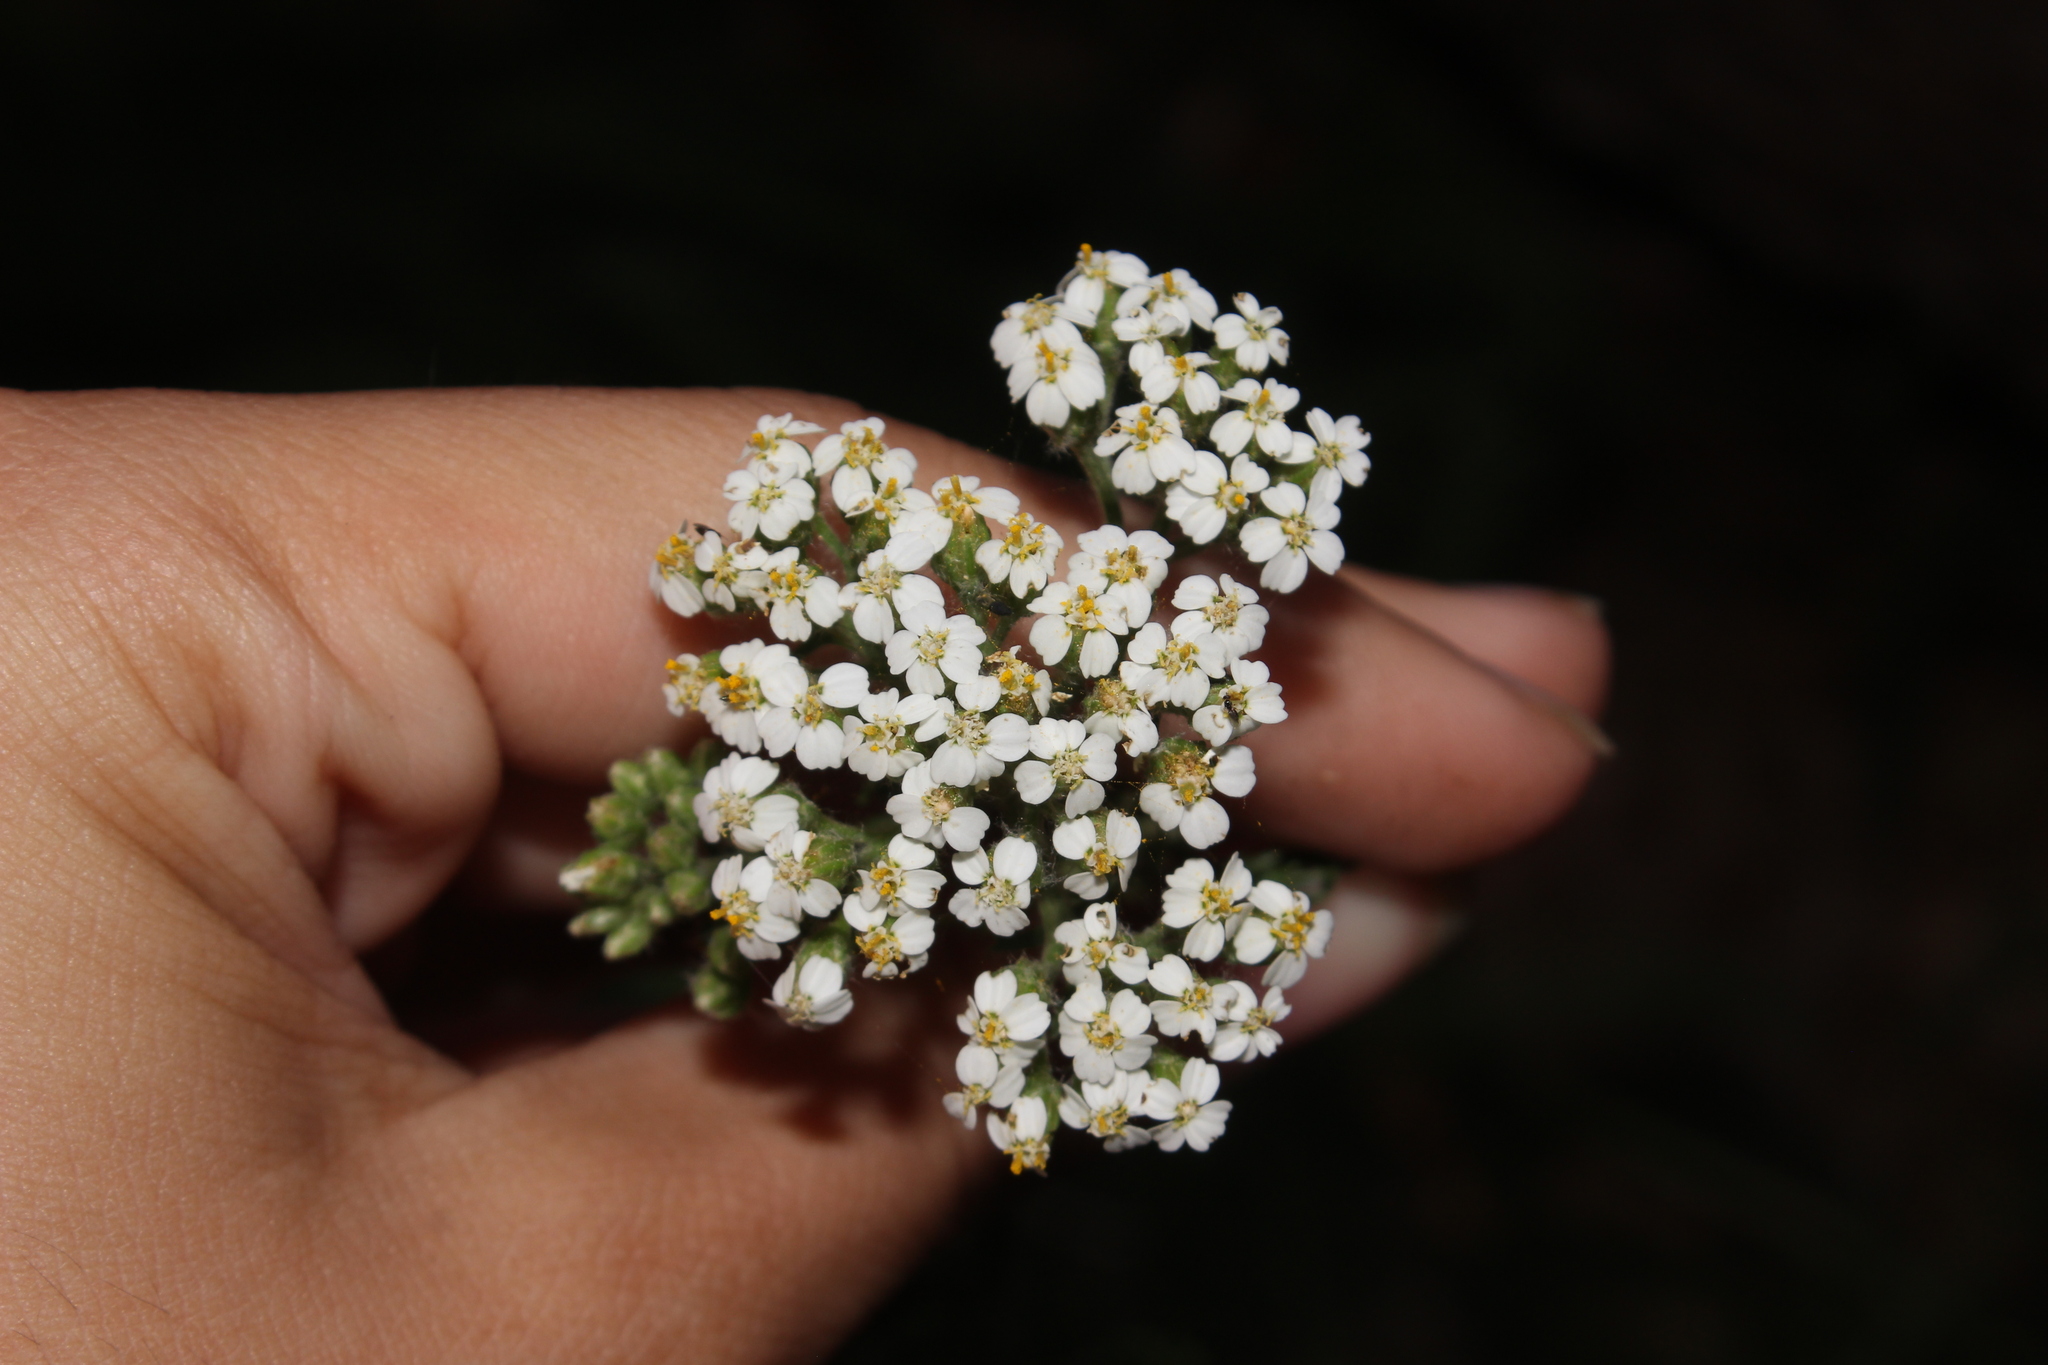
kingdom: Plantae
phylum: Tracheophyta
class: Magnoliopsida
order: Asterales
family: Asteraceae
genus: Achillea
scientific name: Achillea millefolium
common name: Yarrow
